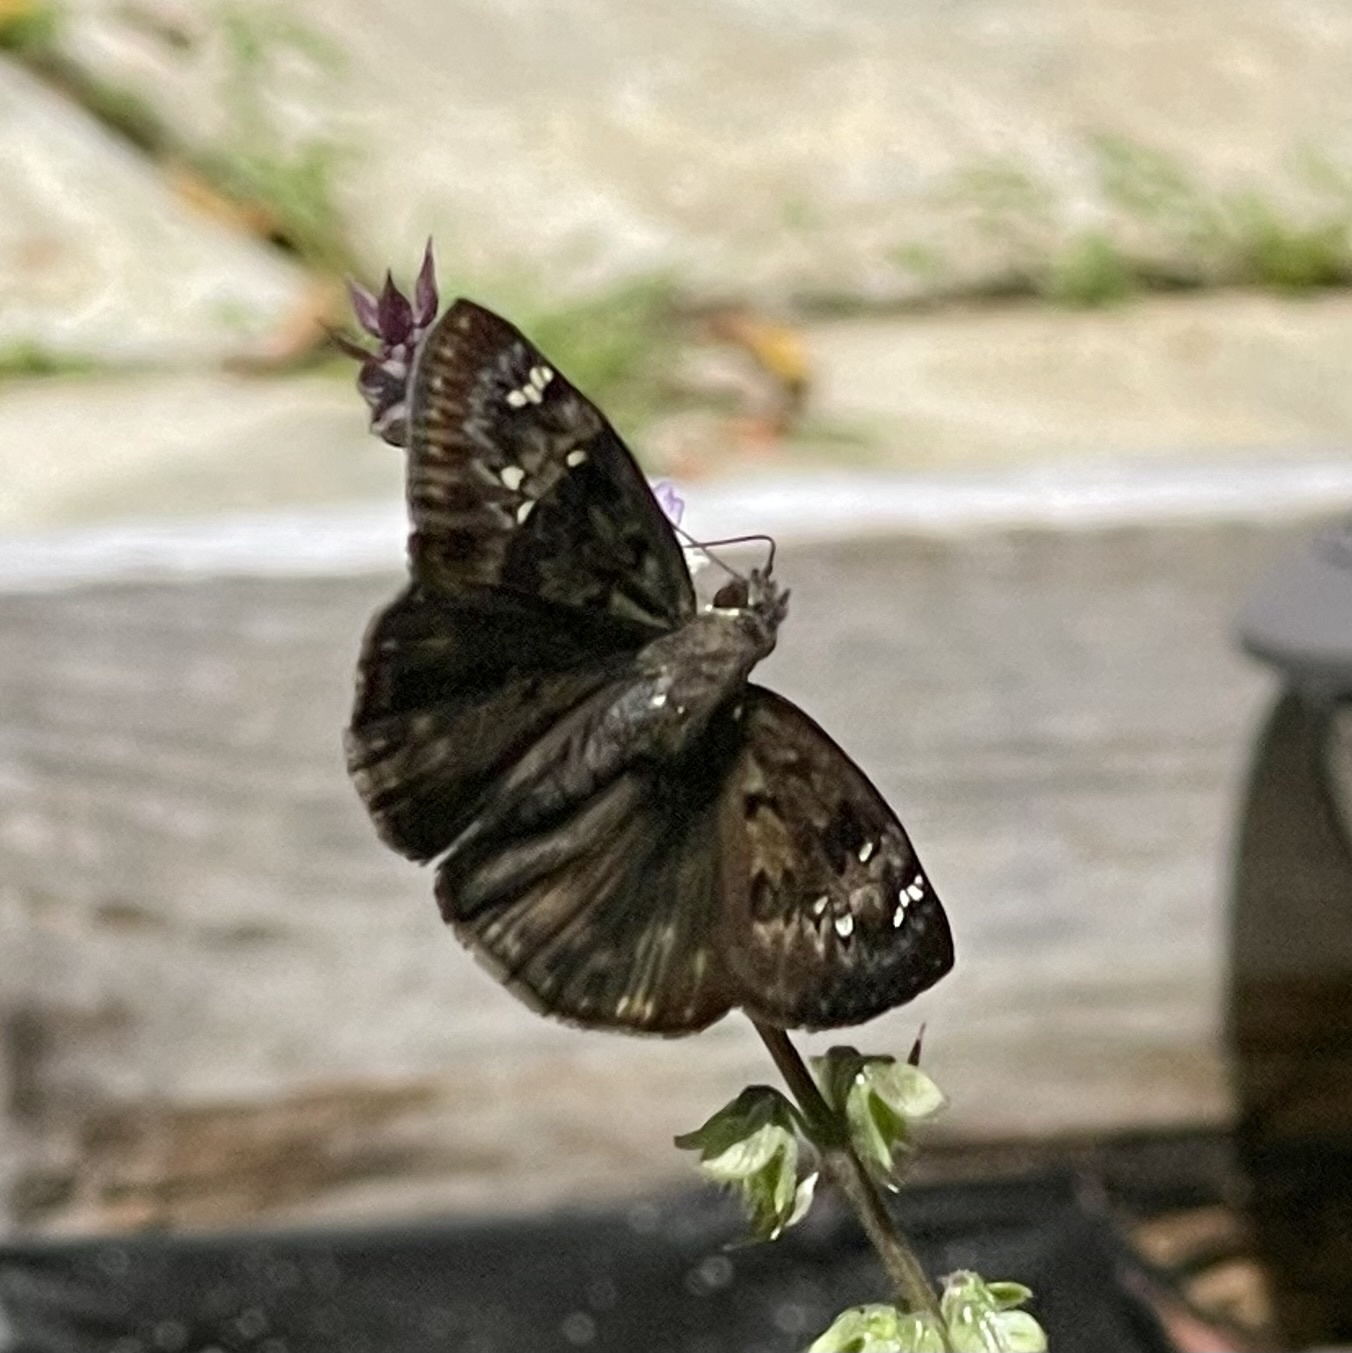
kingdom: Animalia
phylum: Arthropoda
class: Insecta
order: Lepidoptera
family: Hesperiidae
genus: Erynnis
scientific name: Erynnis horatius
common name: Horace's duskywing
